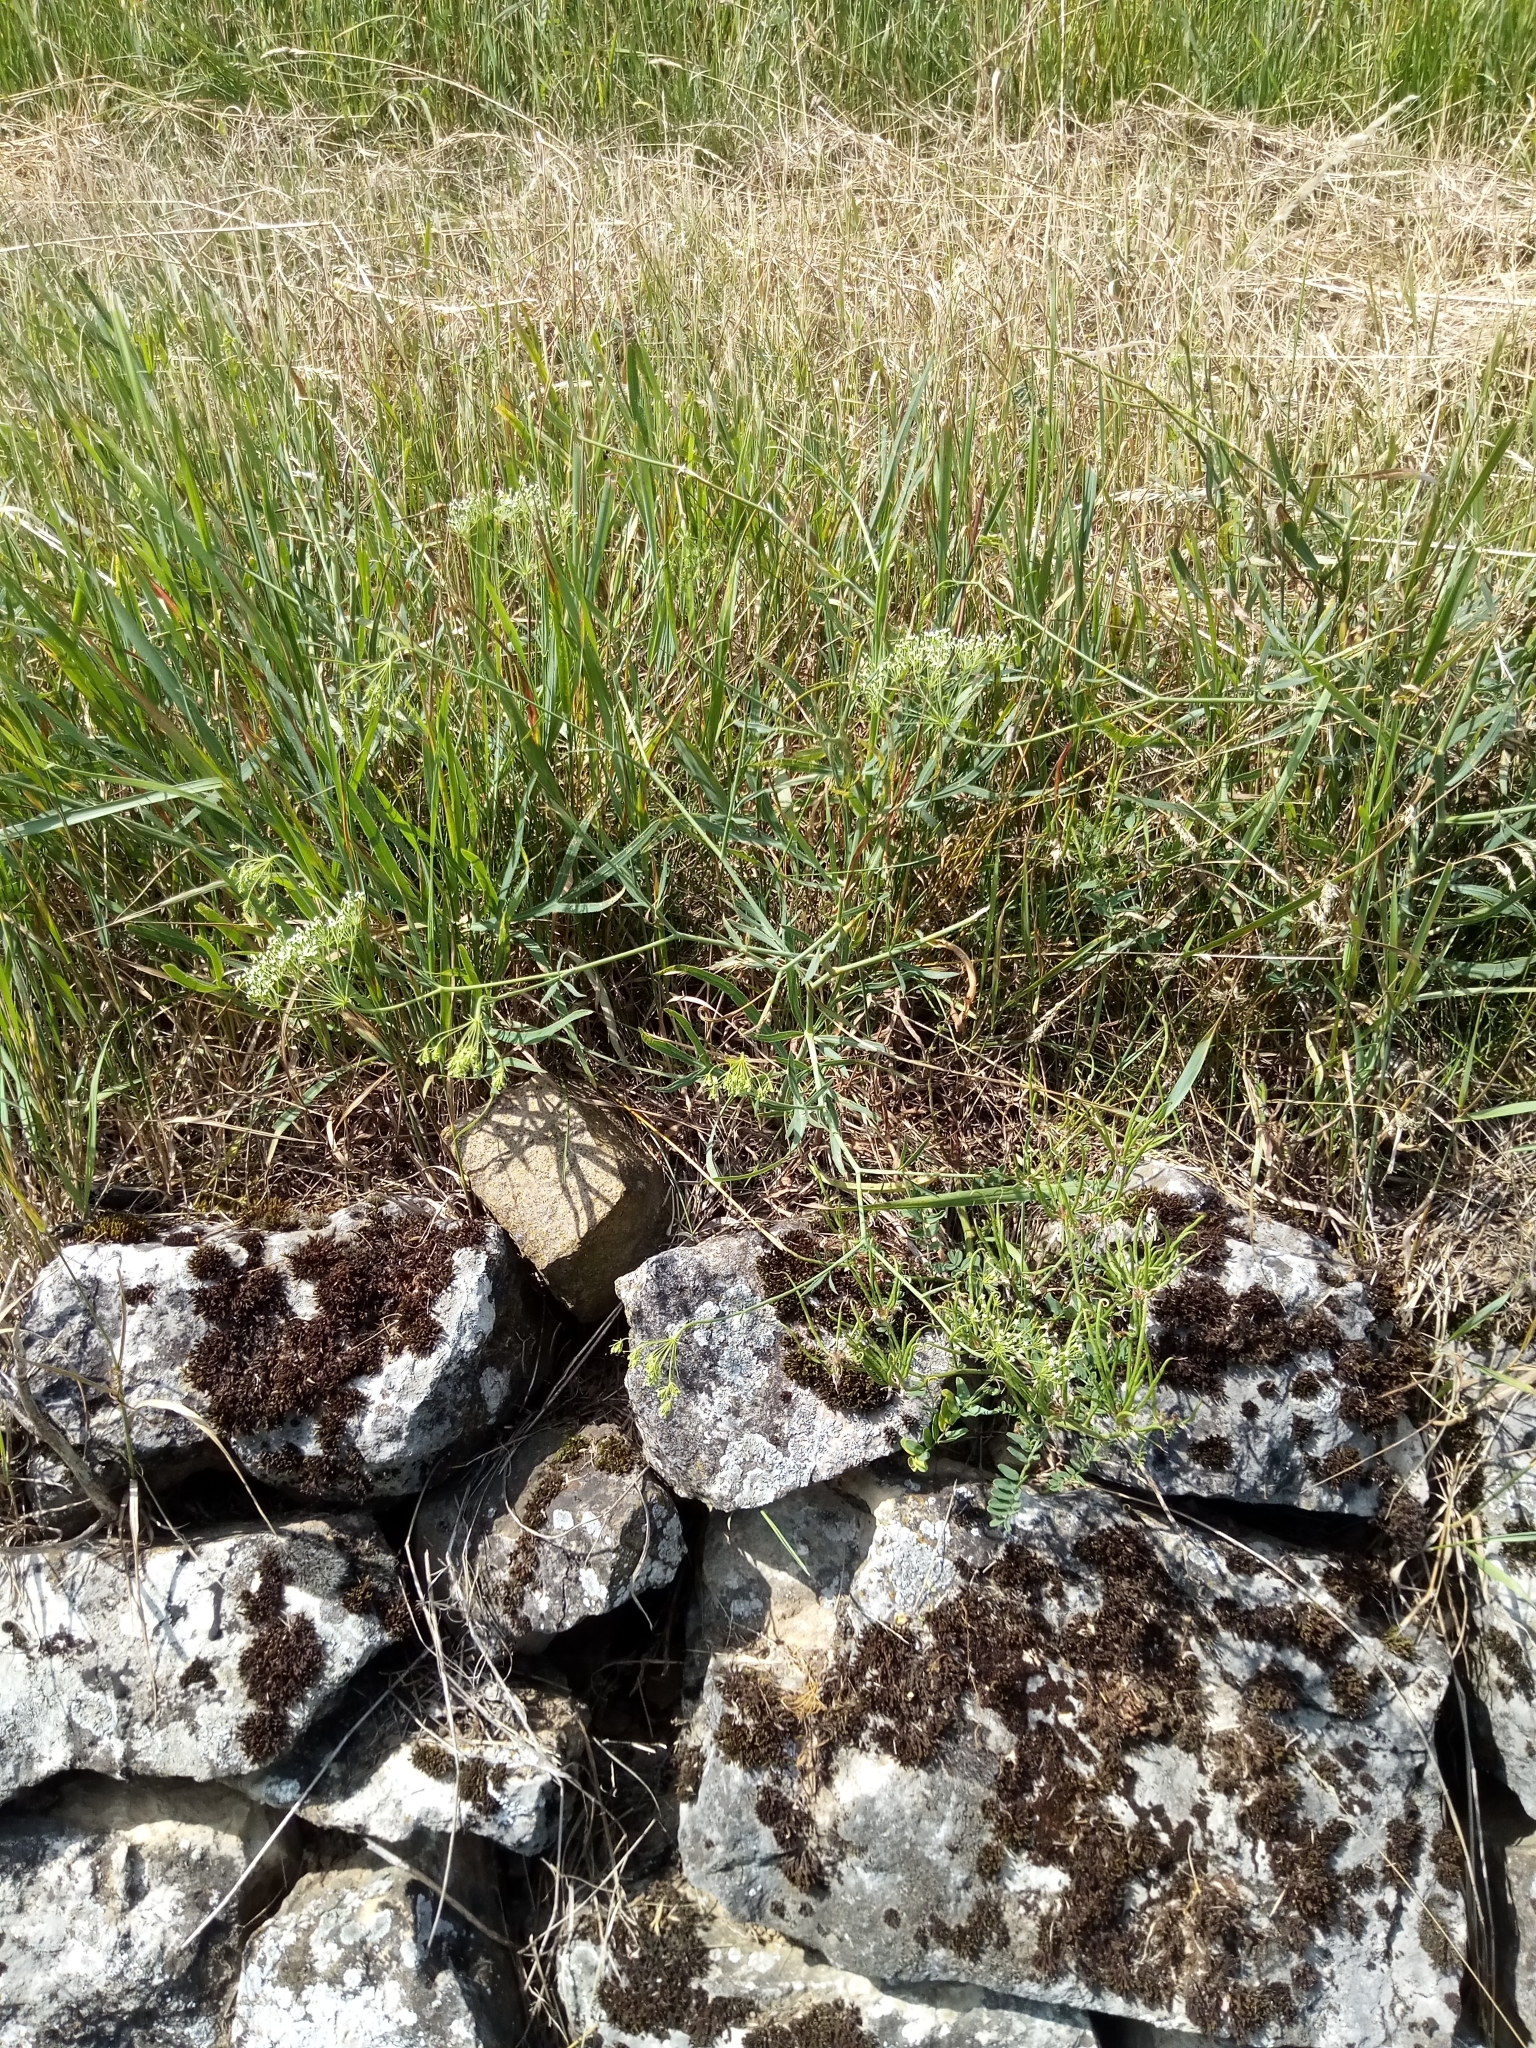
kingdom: Plantae
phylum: Tracheophyta
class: Magnoliopsida
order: Apiales
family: Apiaceae
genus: Falcaria
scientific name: Falcaria vulgaris
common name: Longleaf
